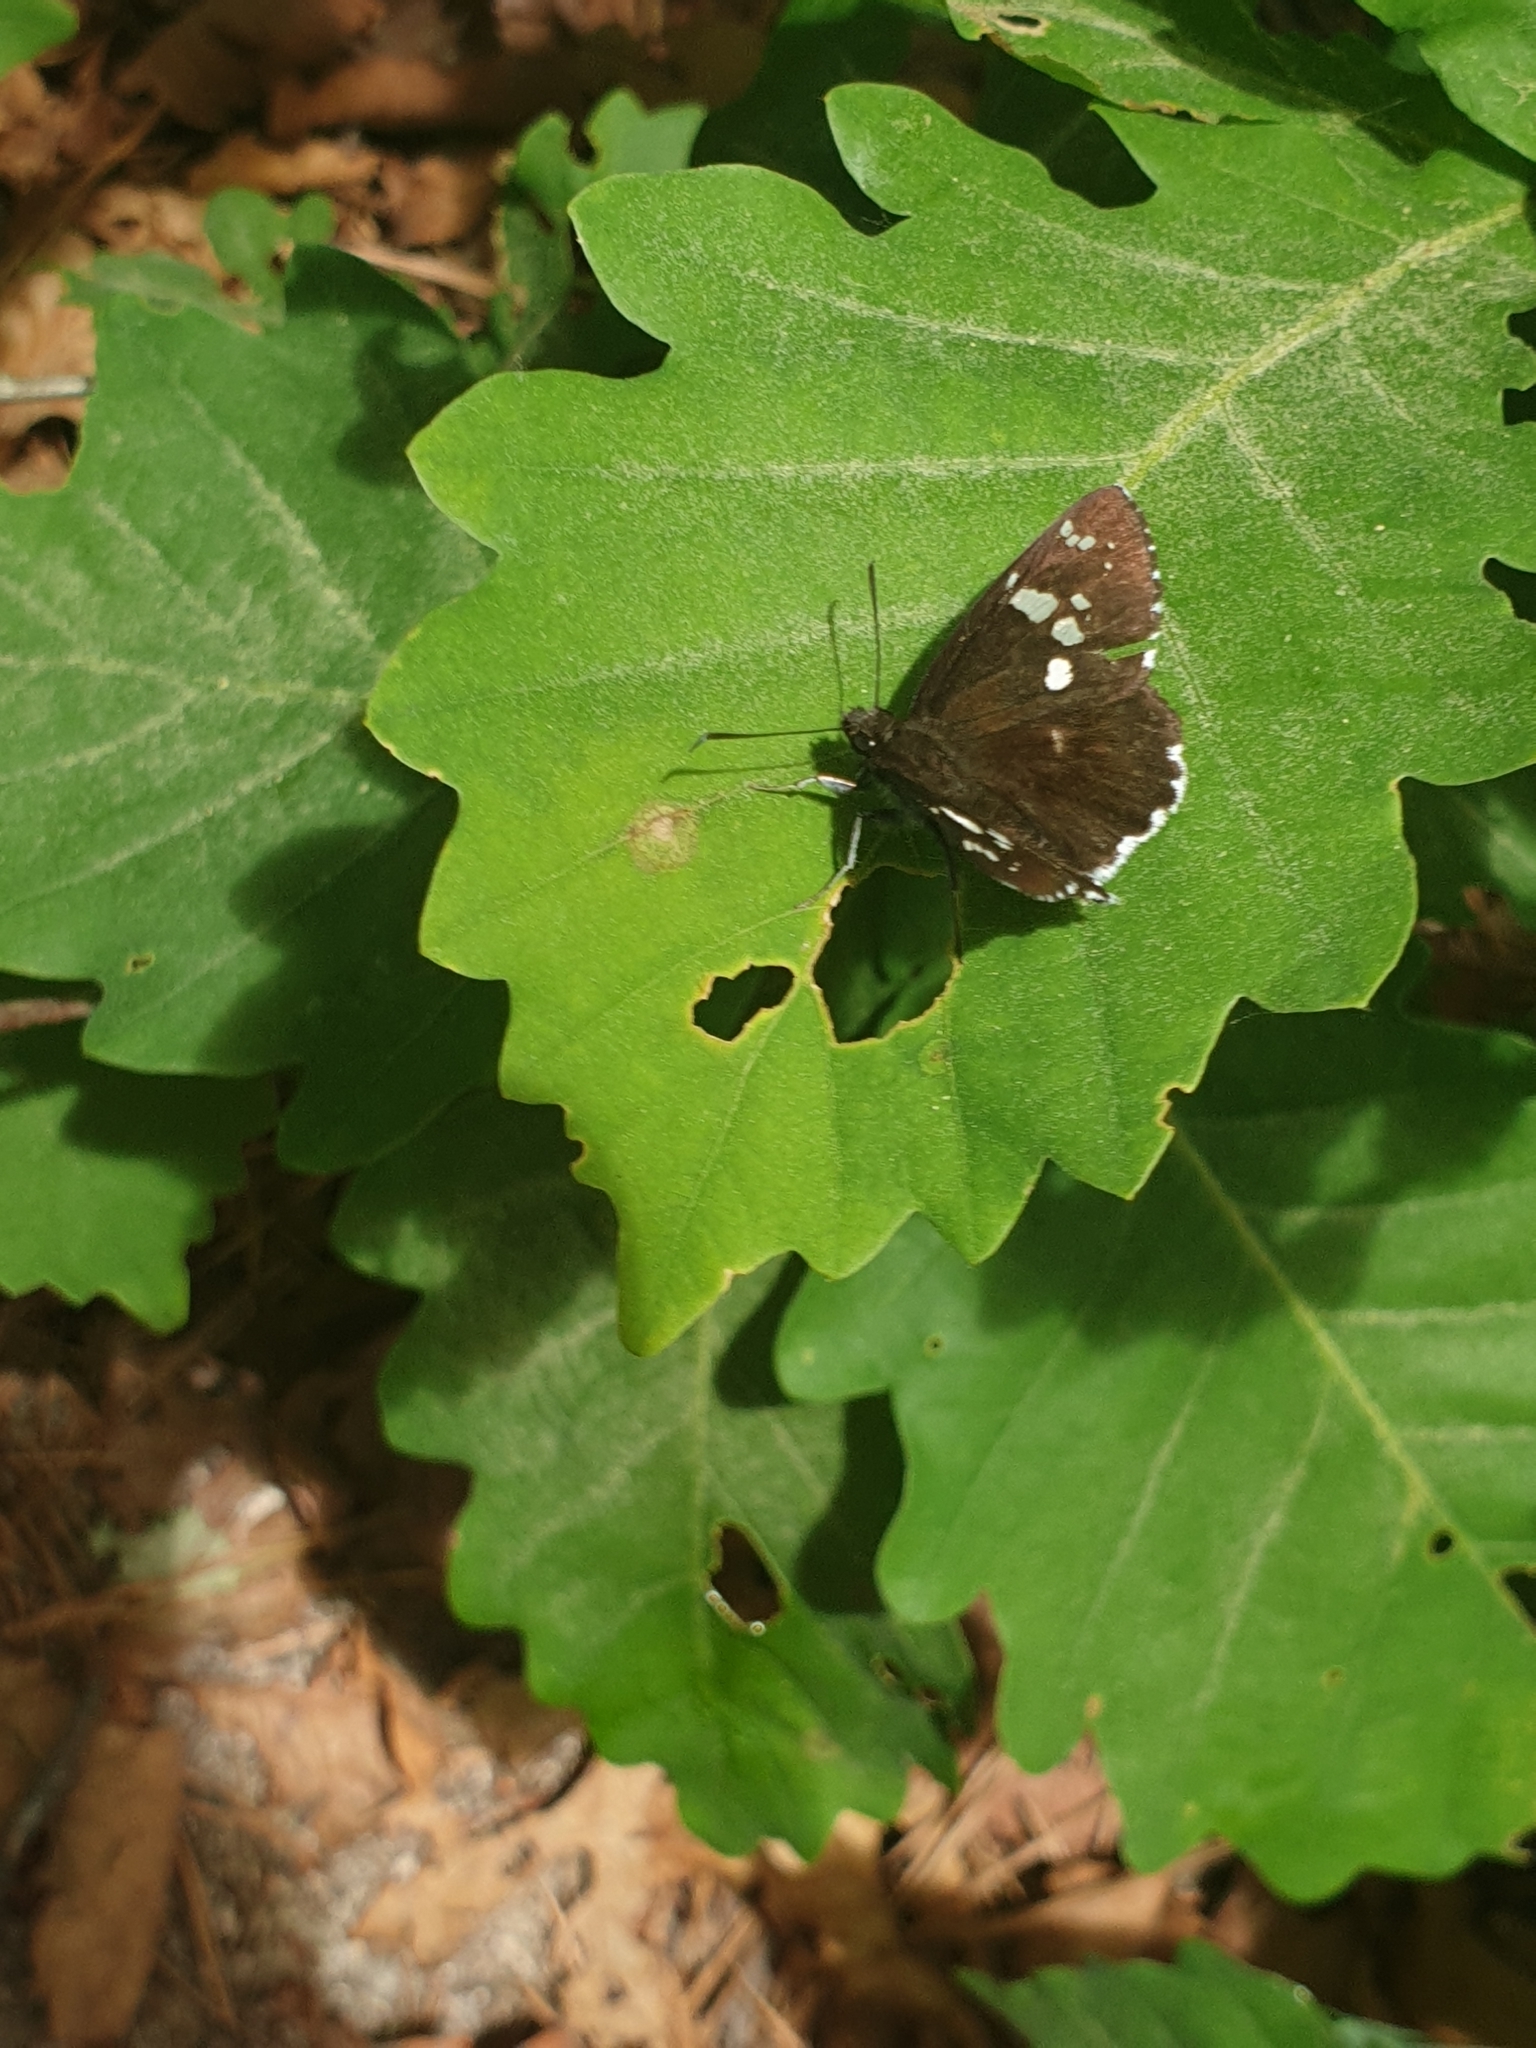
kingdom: Animalia
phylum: Arthropoda
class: Insecta
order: Lepidoptera
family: Hesperiidae
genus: Daimio
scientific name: Daimio tethys
